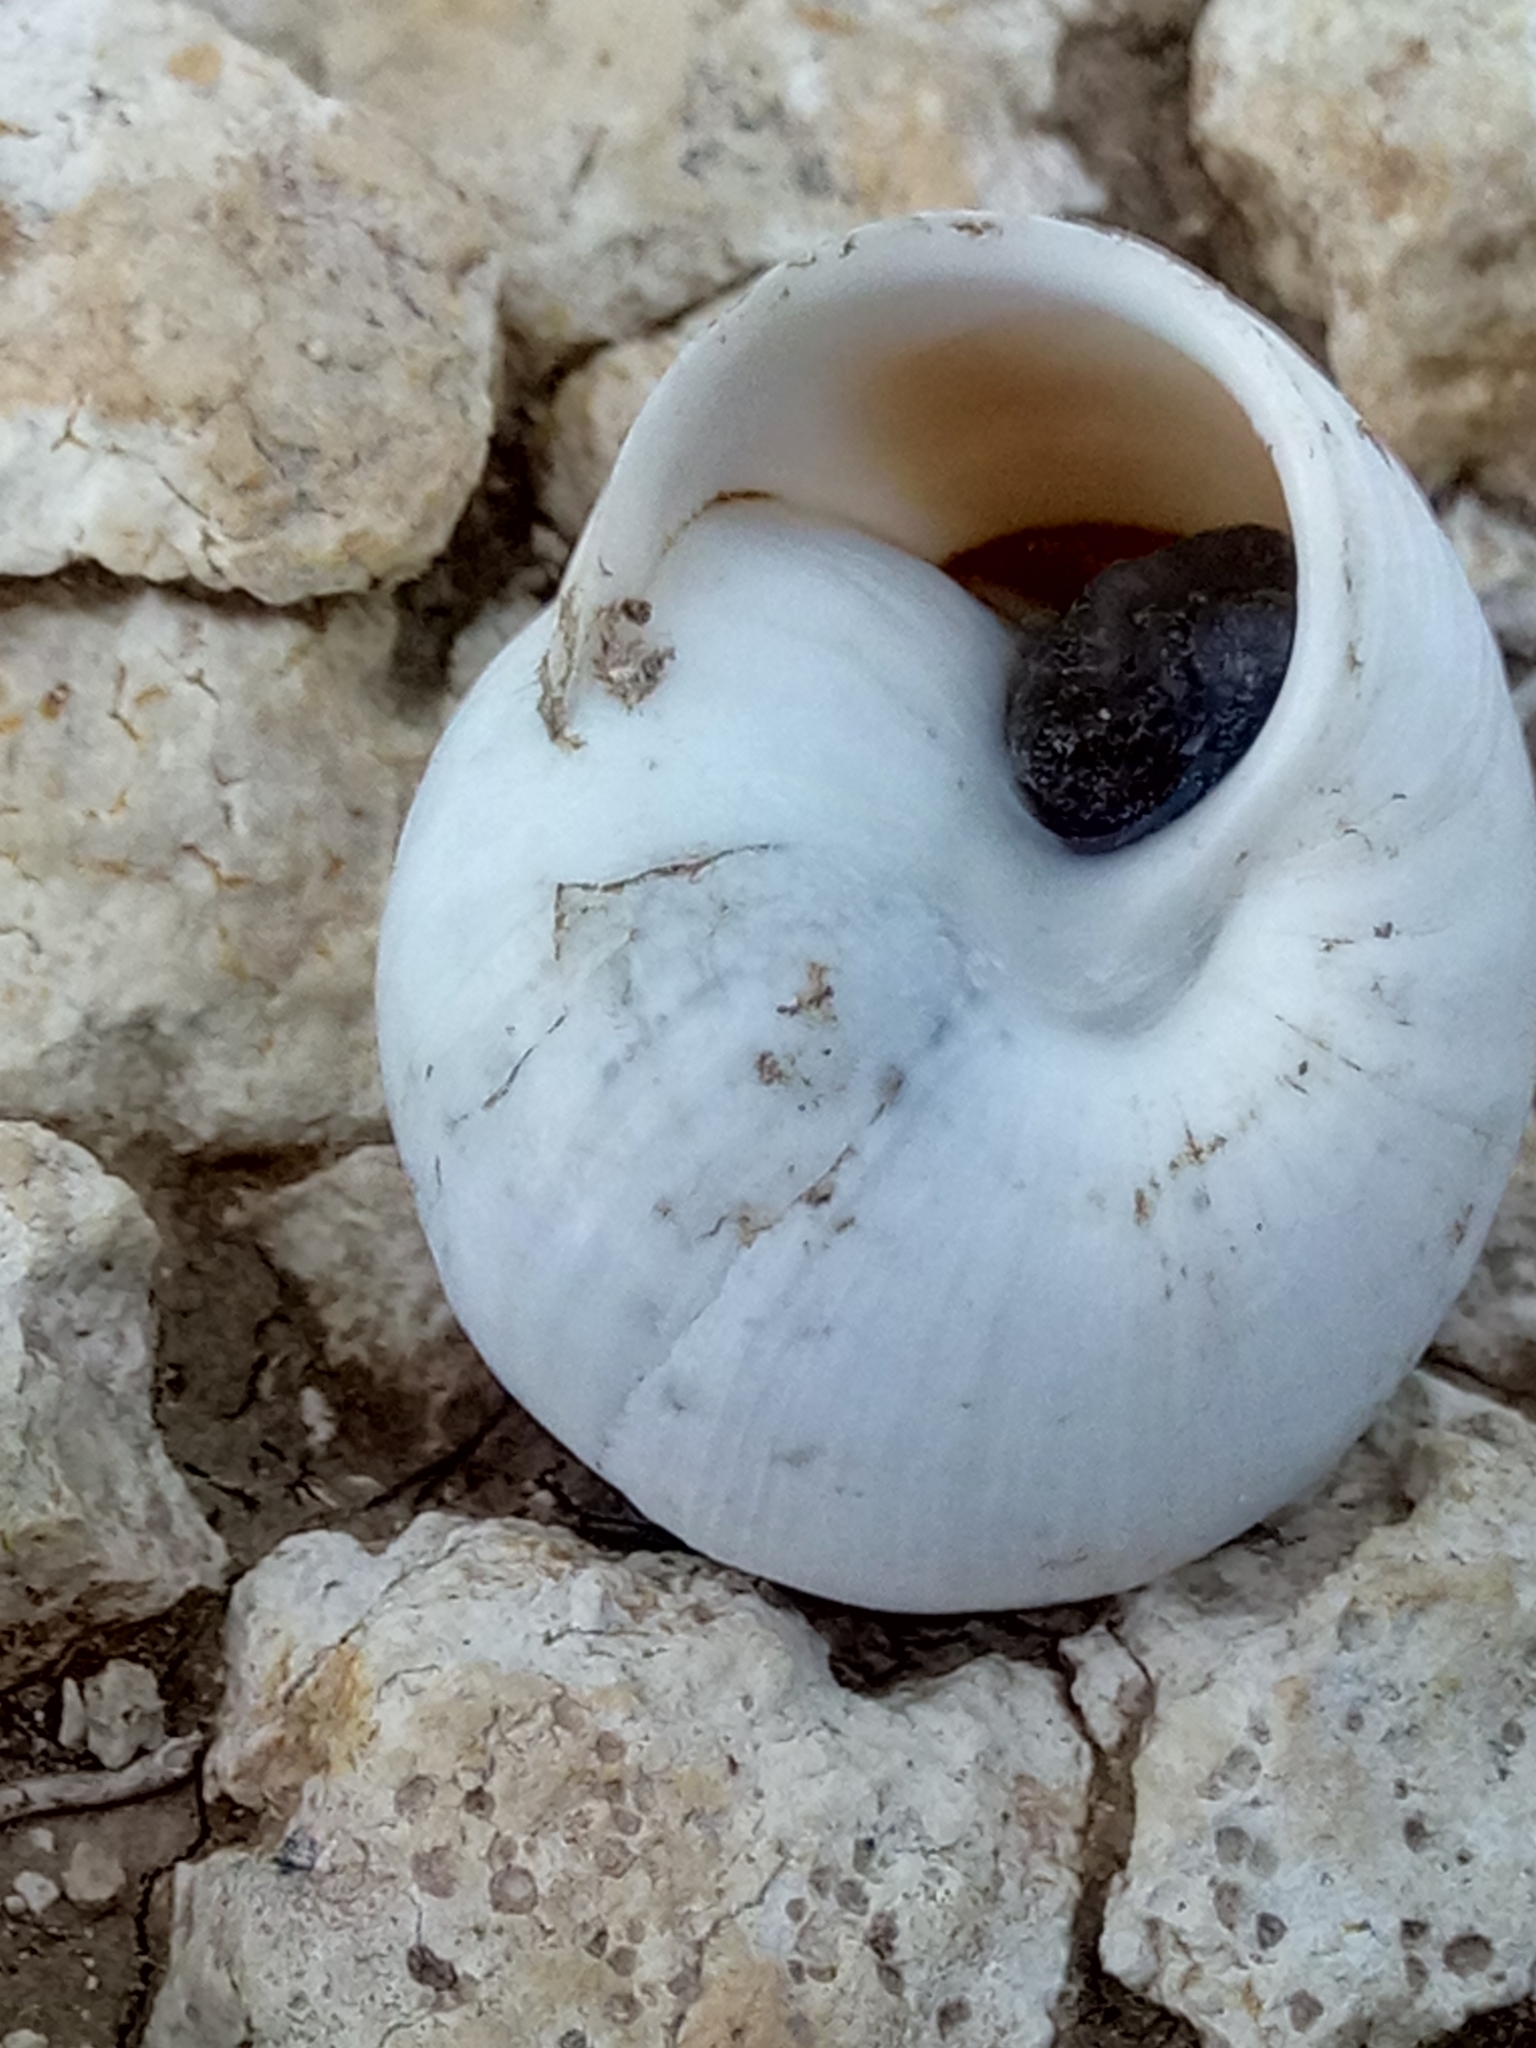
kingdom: Animalia
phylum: Mollusca
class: Gastropoda
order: Stylommatophora
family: Sphincterochilidae
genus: Sphincterochila
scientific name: Sphincterochila candidissima
